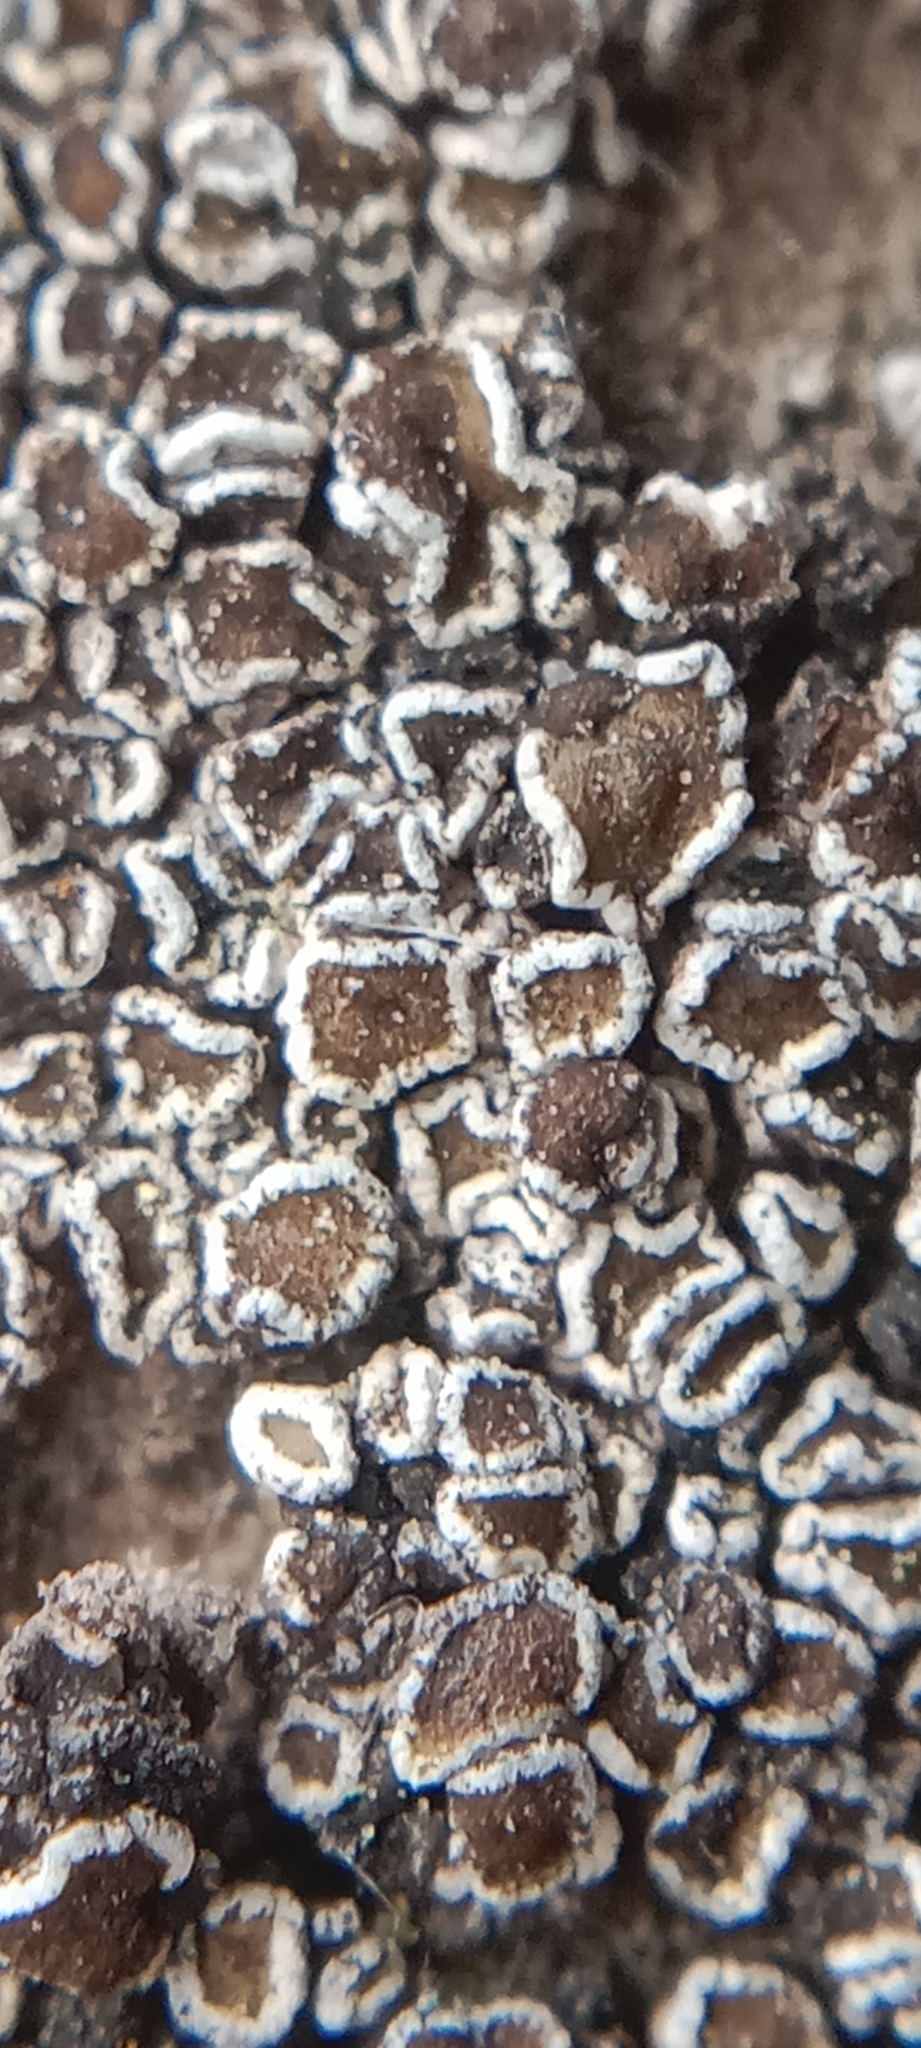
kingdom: Fungi
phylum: Ascomycota
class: Lecanoromycetes
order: Lecanorales
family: Lecanoraceae
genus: Polyozosia
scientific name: Polyozosia semipallida
